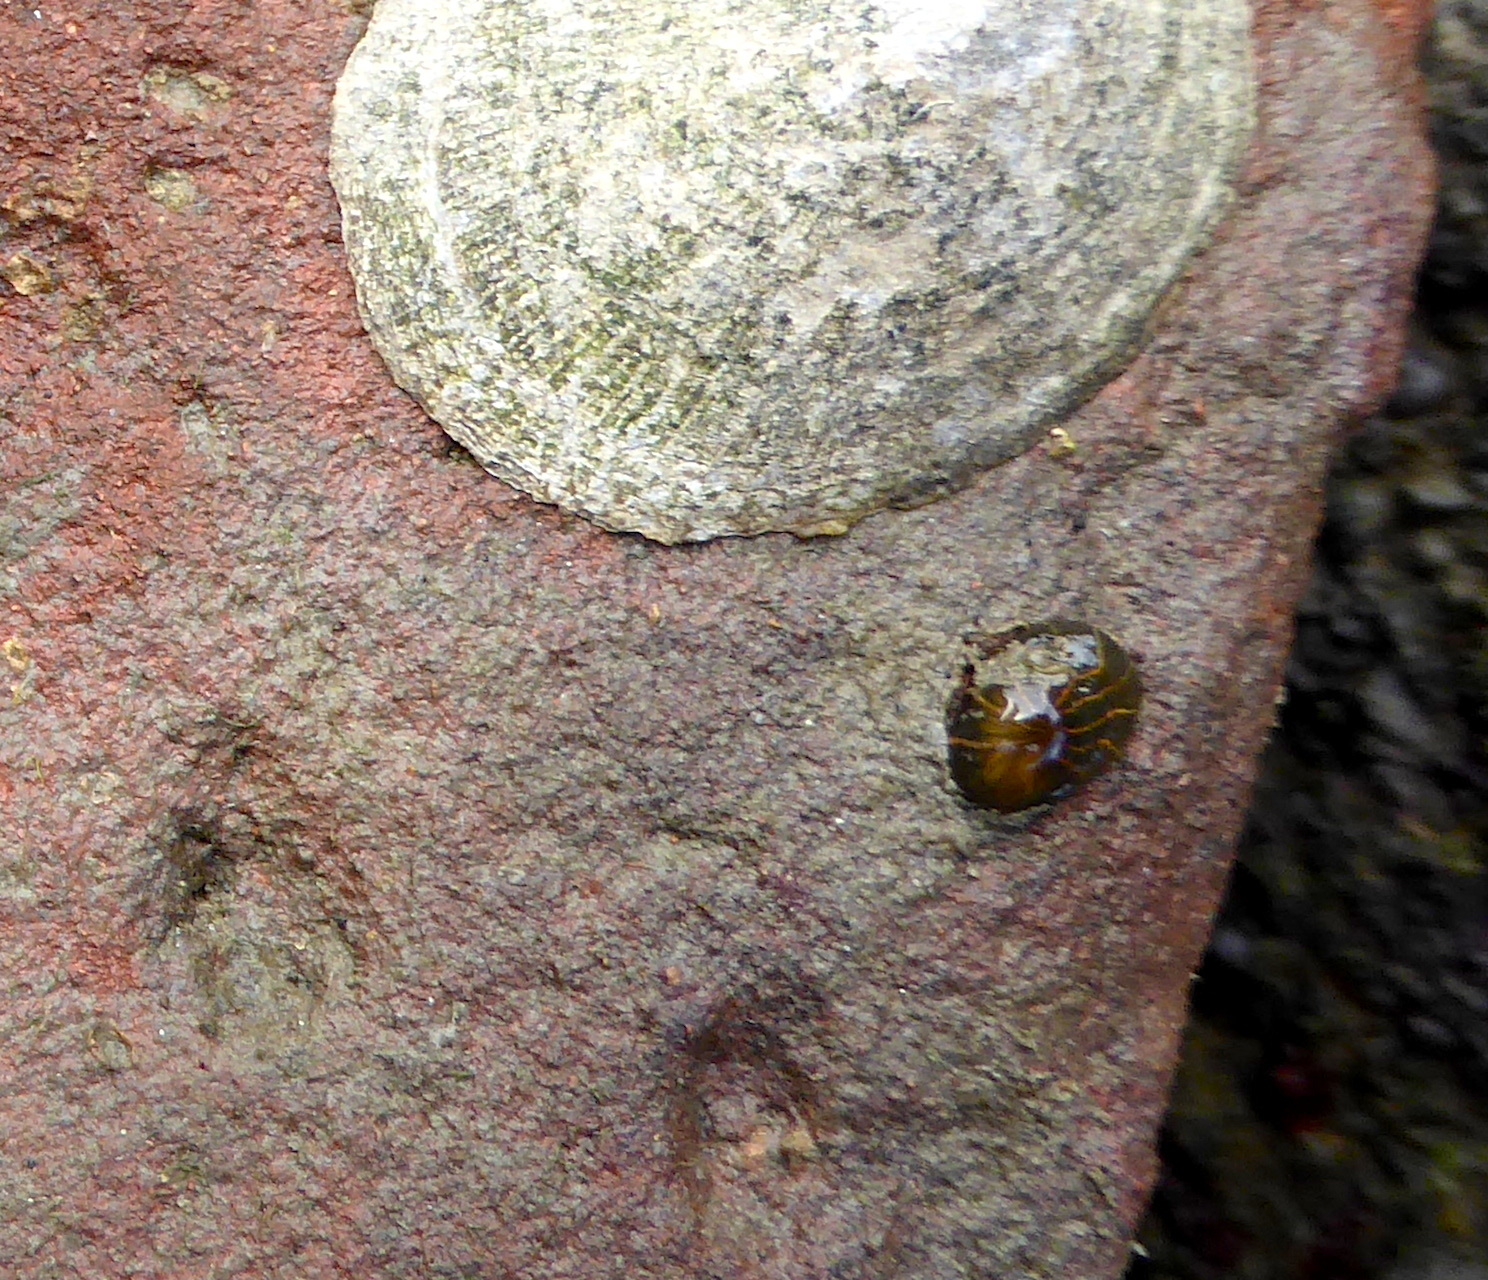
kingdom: Animalia
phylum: Cnidaria
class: Anthozoa
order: Actiniaria
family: Diadumenidae
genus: Diadumene
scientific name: Diadumene lineata
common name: Orange-striped anemone
